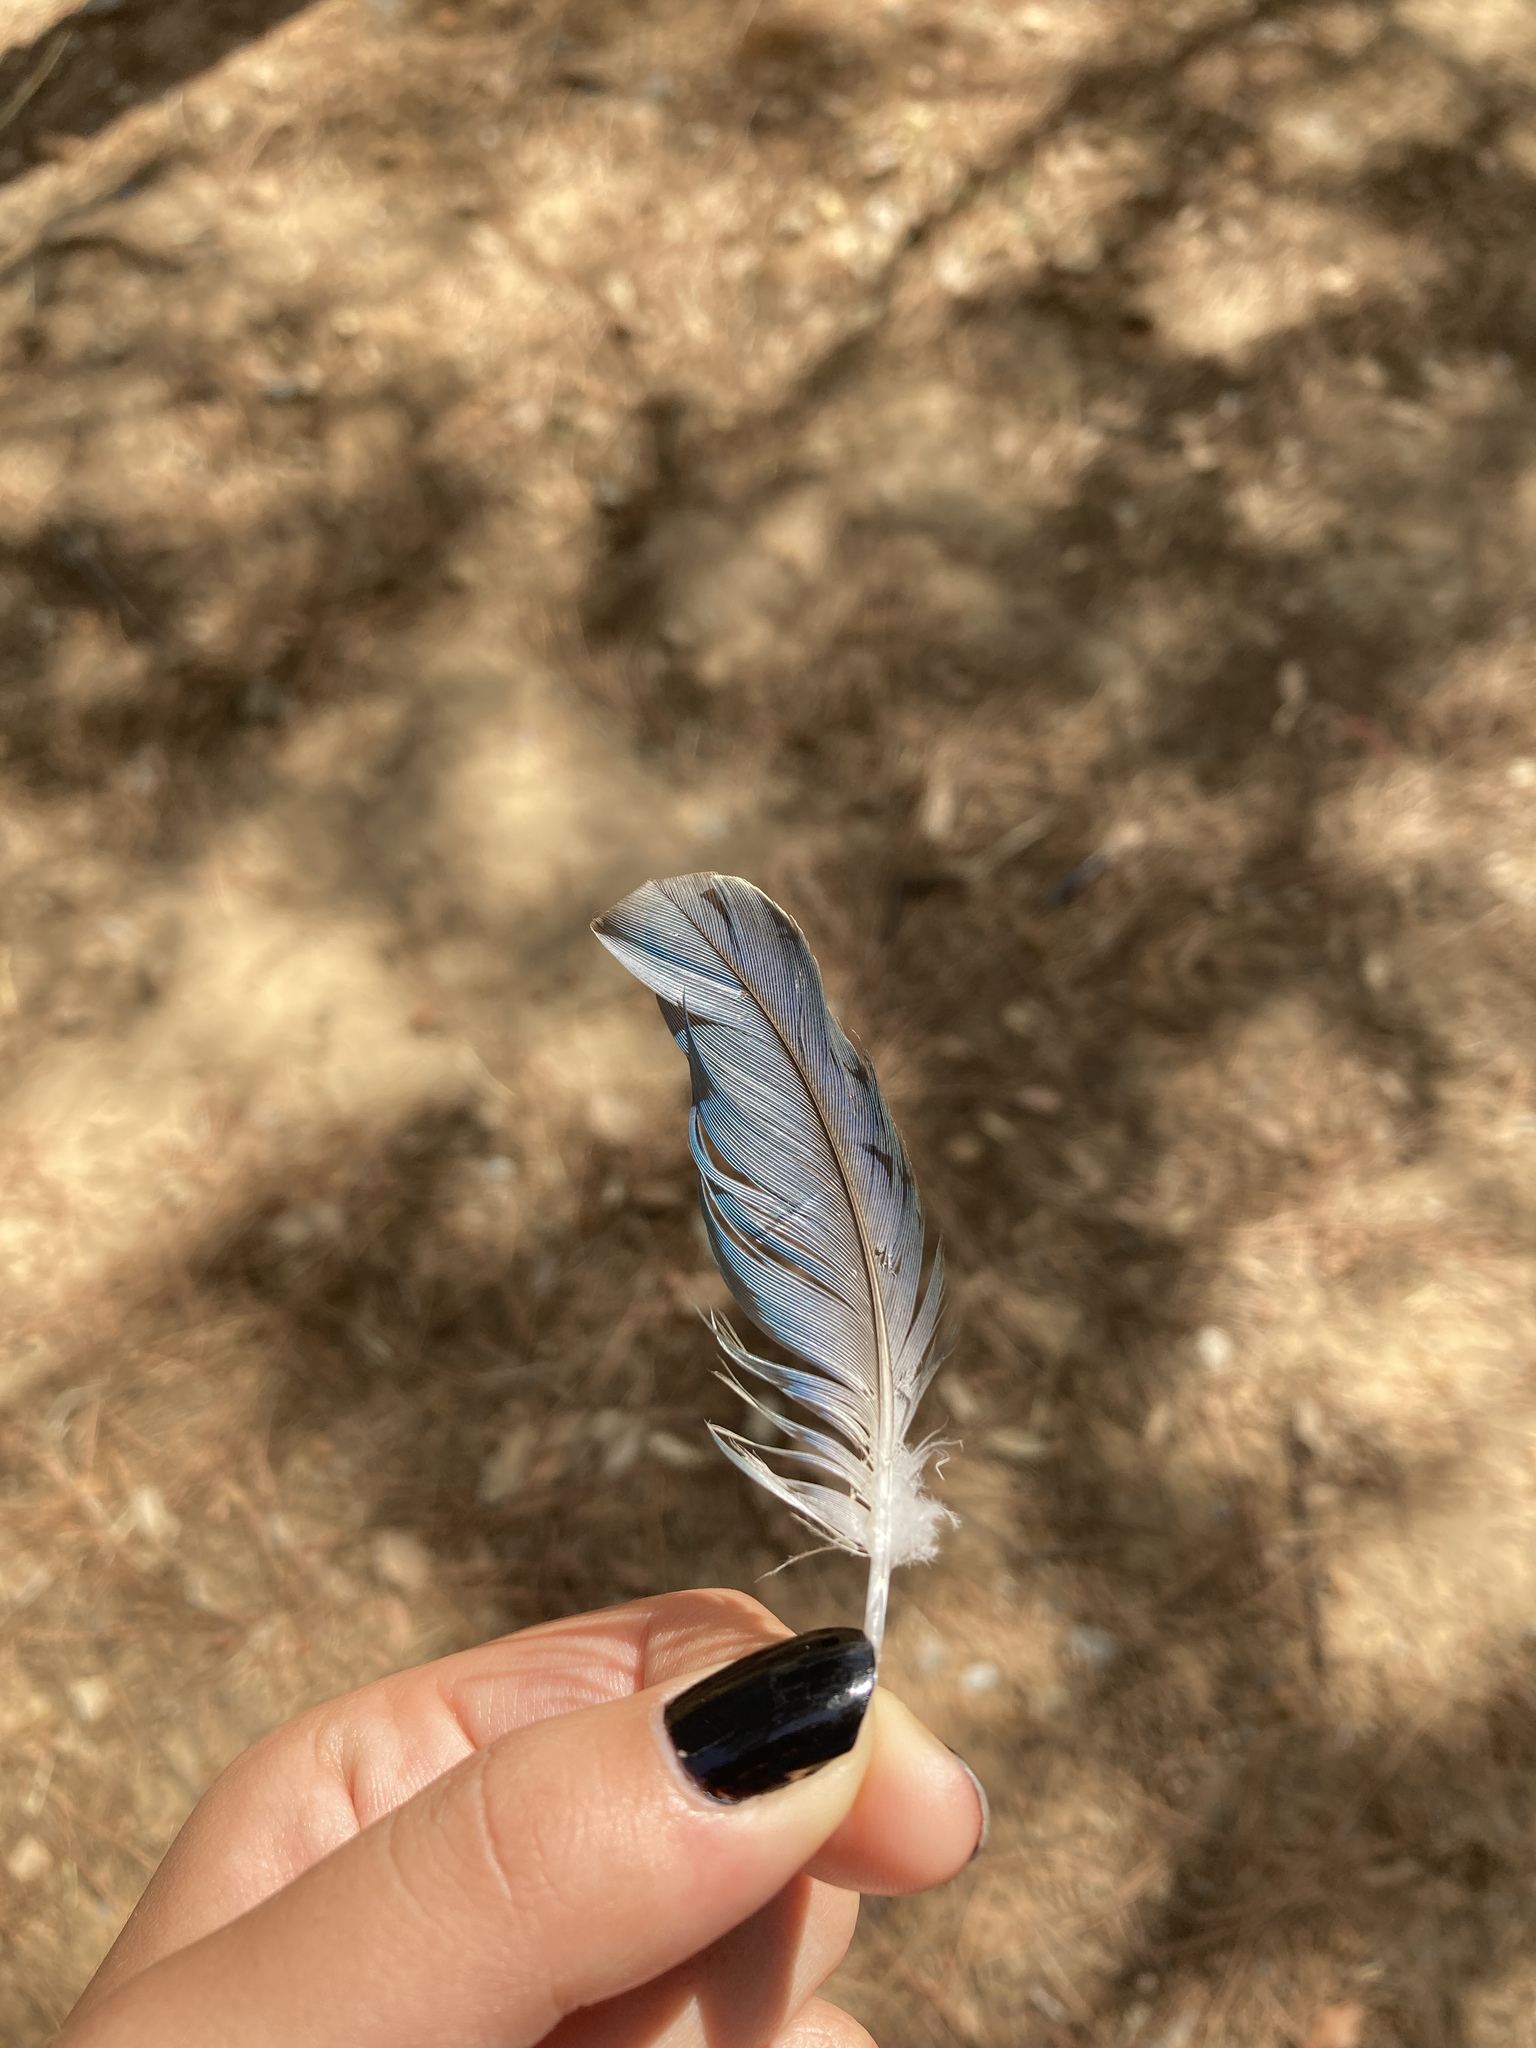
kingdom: Animalia
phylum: Chordata
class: Aves
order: Psittaciformes
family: Psittacidae
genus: Myiopsitta
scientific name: Myiopsitta monachus
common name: Monk parakeet
